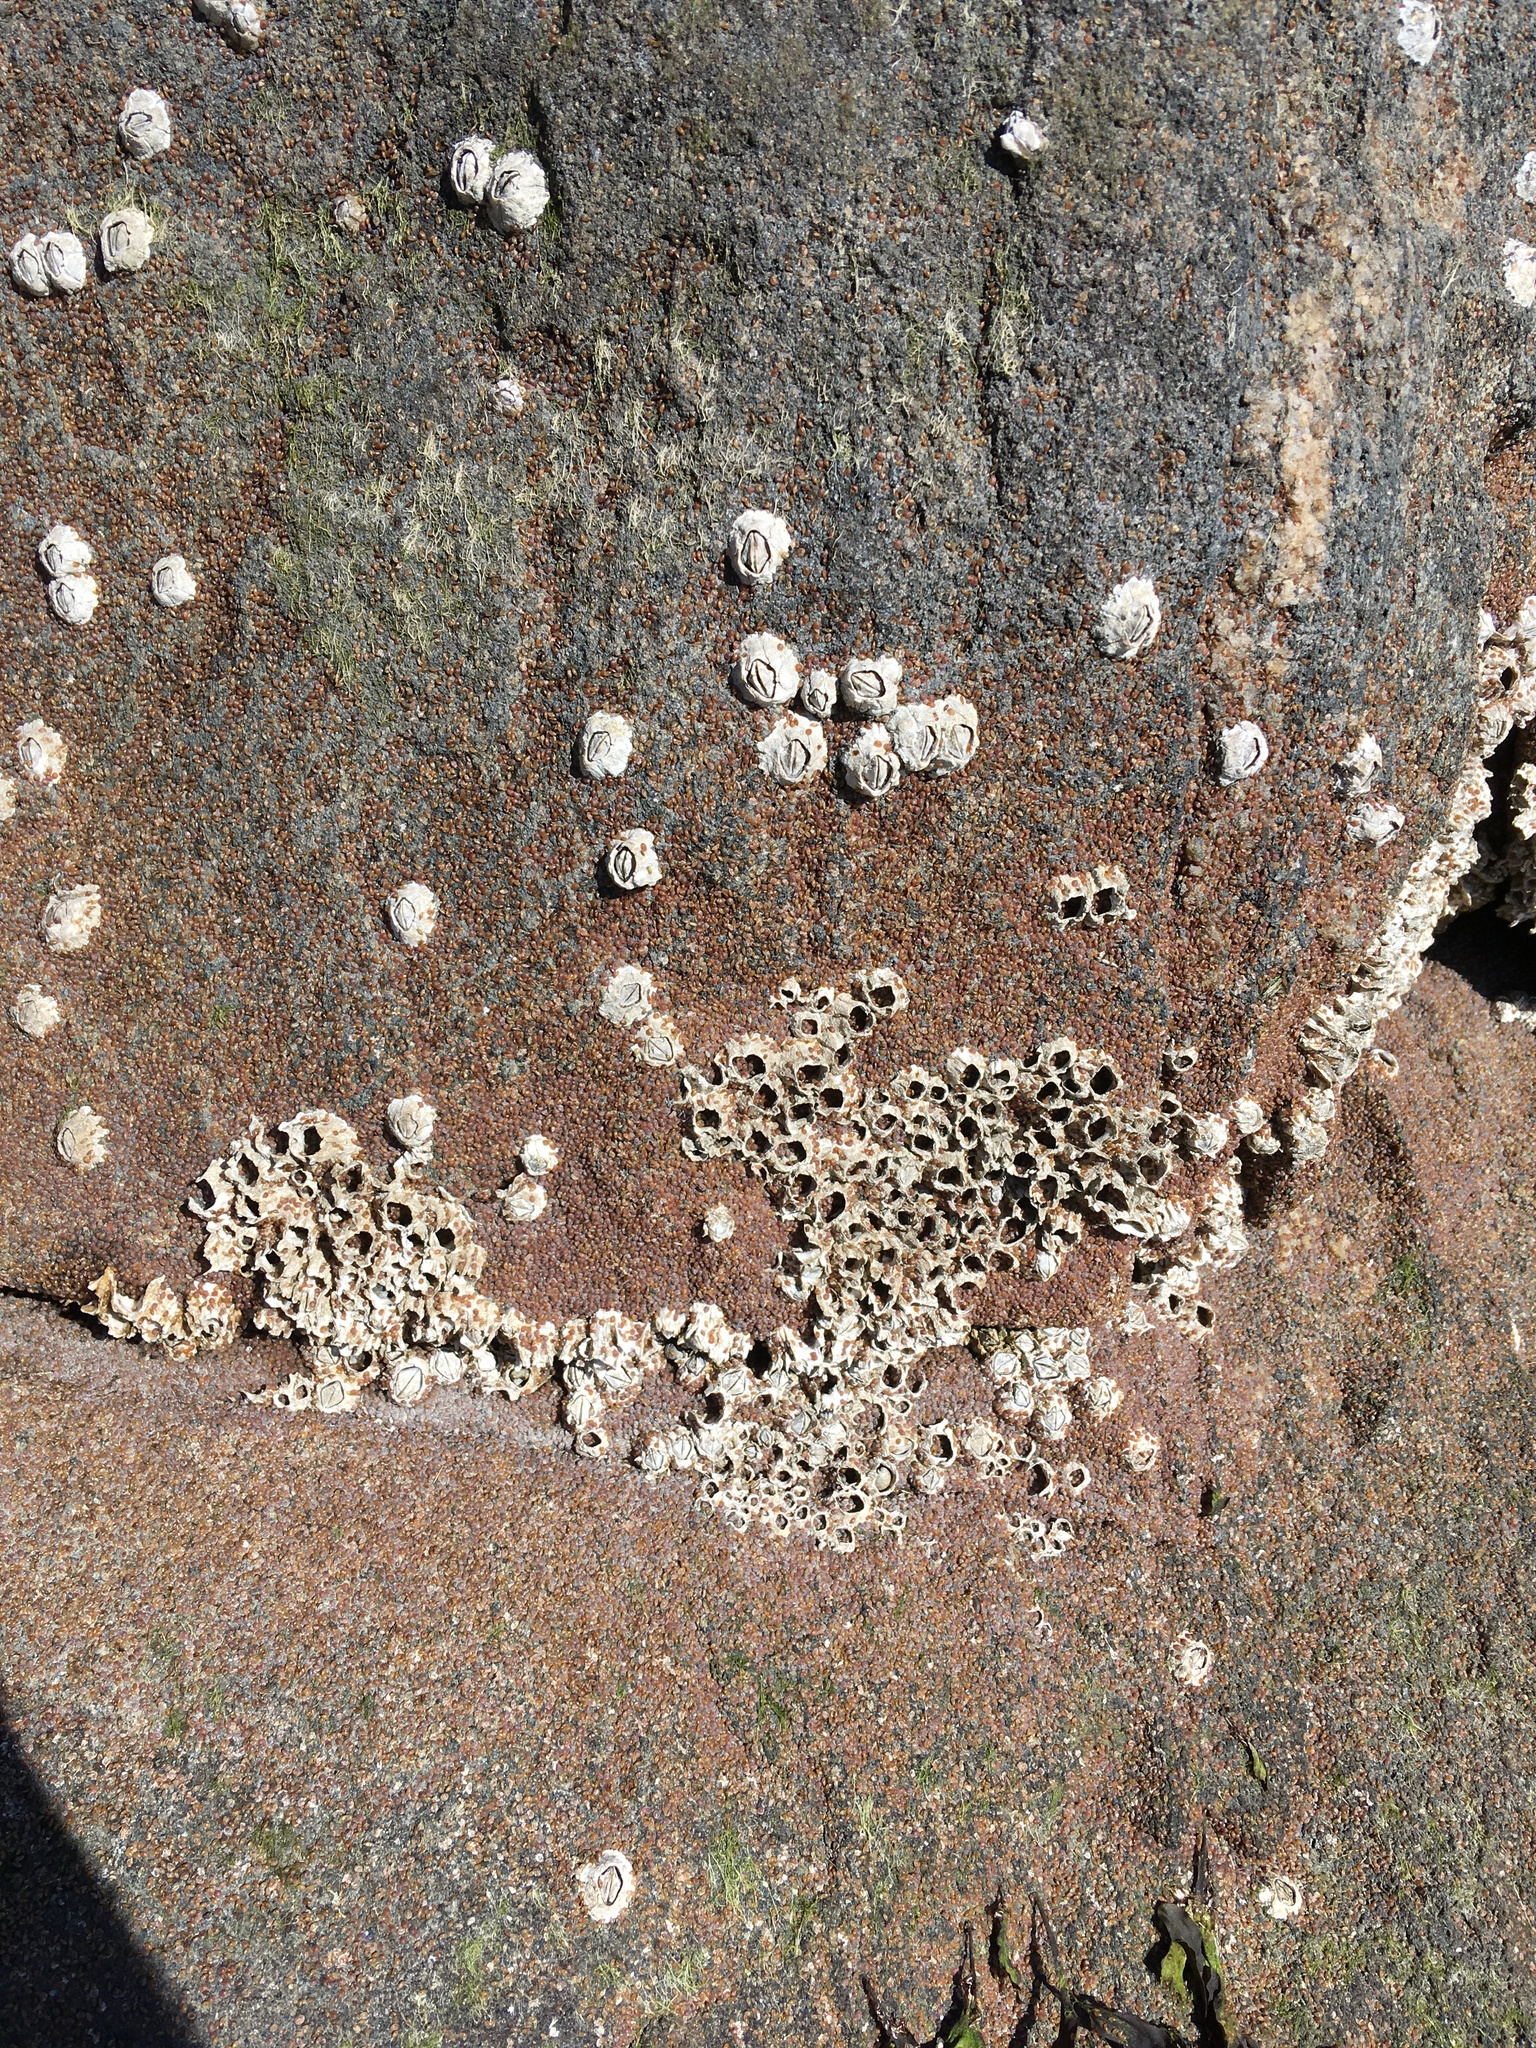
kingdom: Animalia
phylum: Arthropoda
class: Maxillopoda
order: Sessilia
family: Archaeobalanidae
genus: Semibalanus
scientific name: Semibalanus balanoides
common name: Acorn barnacle
